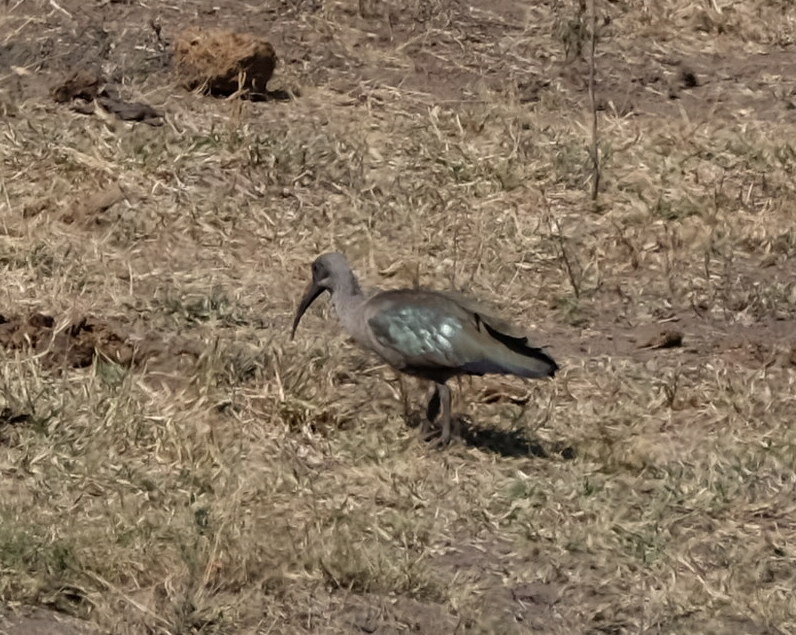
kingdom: Animalia
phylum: Chordata
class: Aves
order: Pelecaniformes
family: Threskiornithidae
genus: Bostrychia
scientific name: Bostrychia hagedash
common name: Hadada ibis
